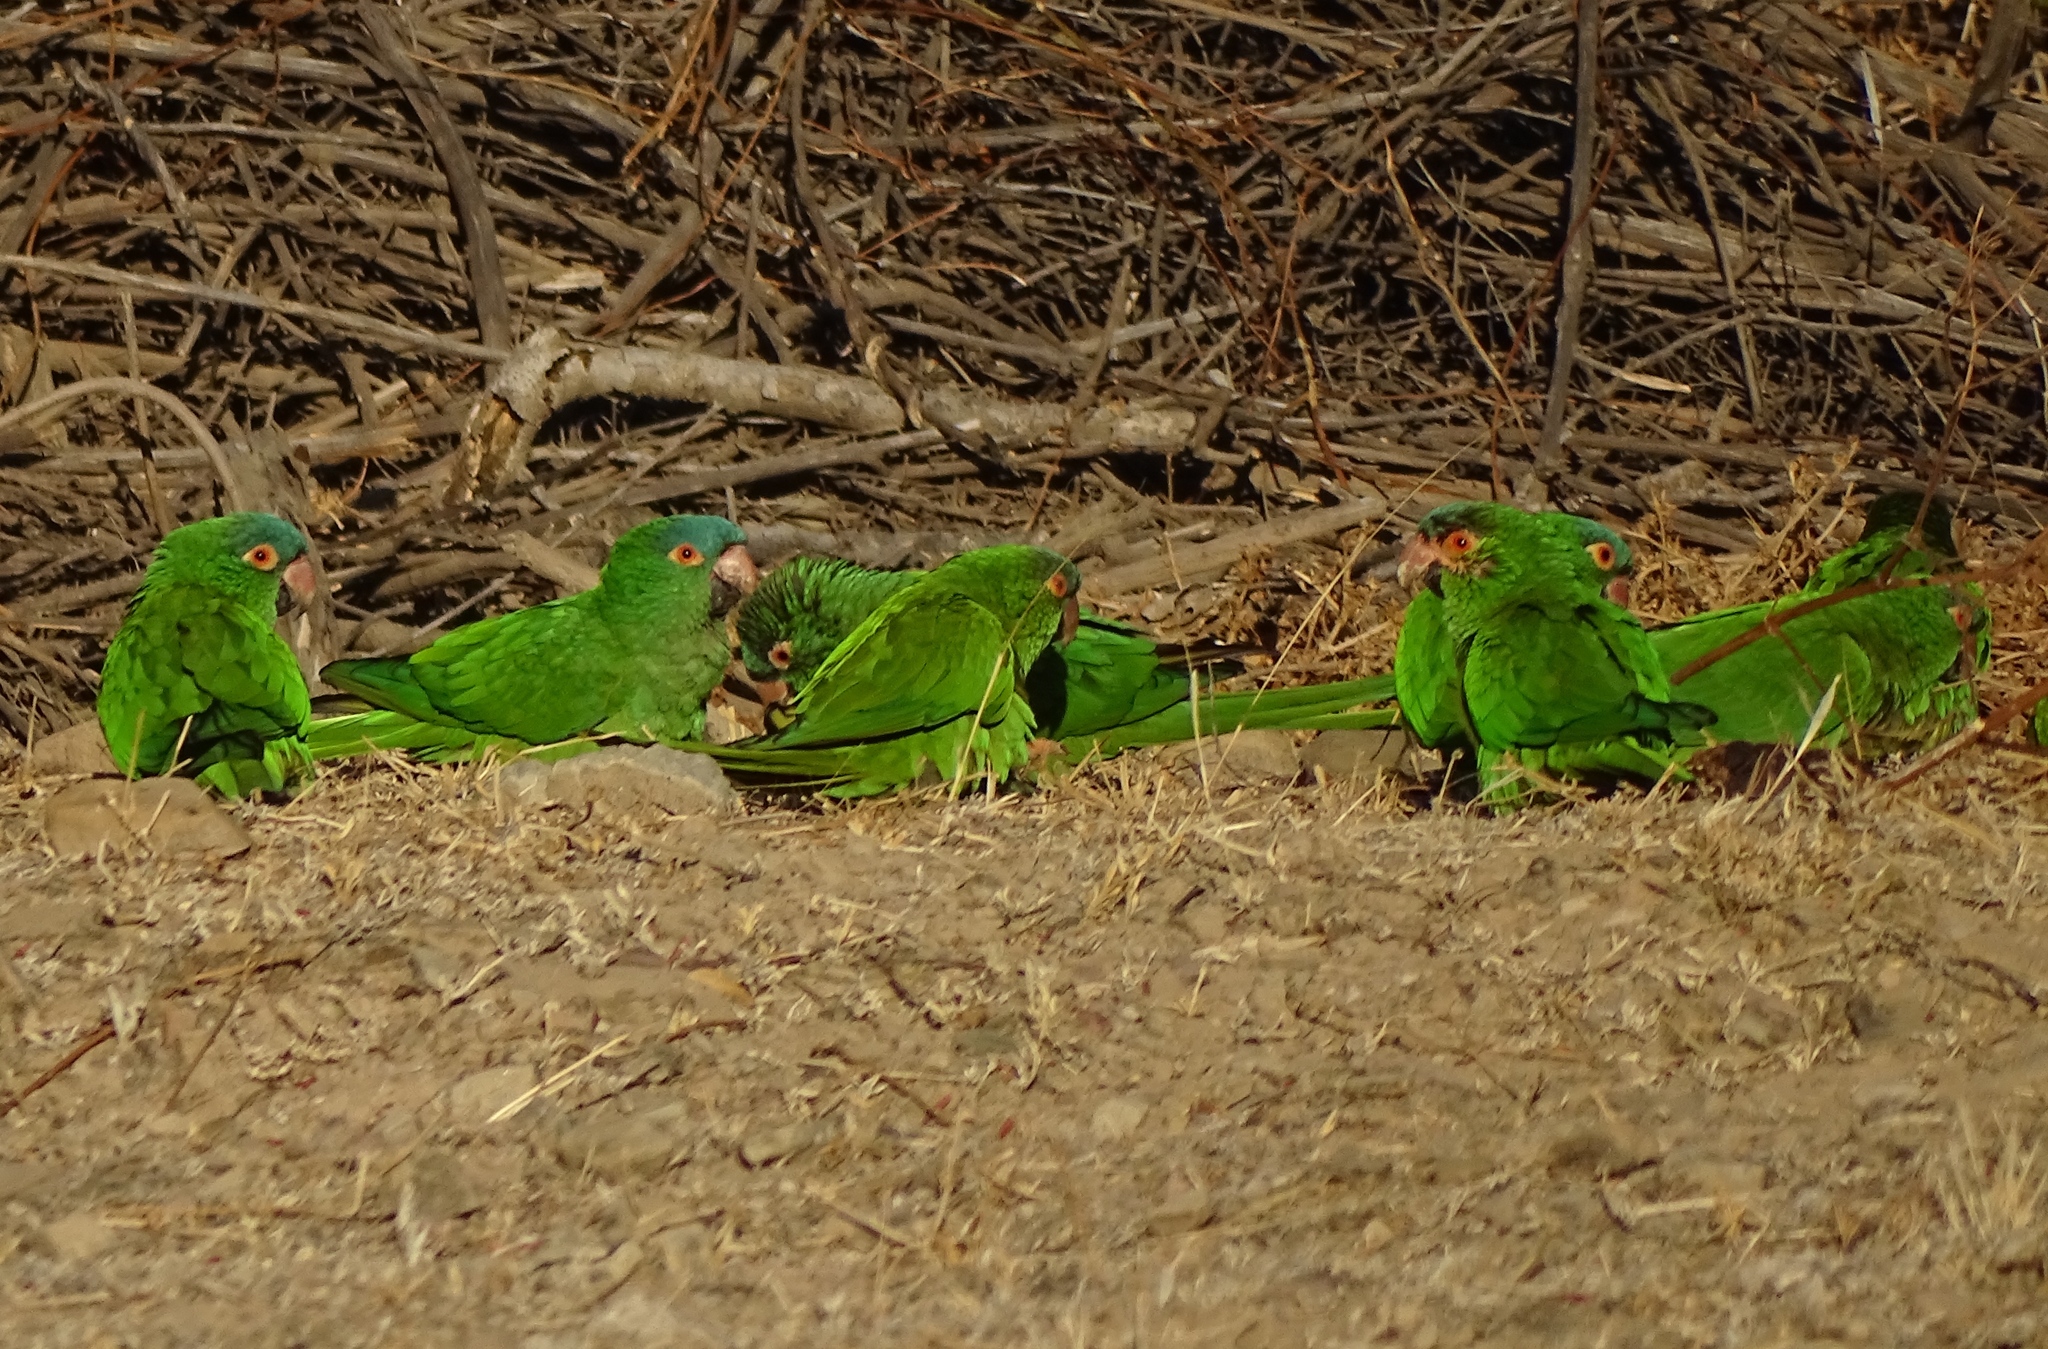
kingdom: Animalia
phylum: Chordata
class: Aves
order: Psittaciformes
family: Psittacidae
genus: Aratinga
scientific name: Aratinga acuticaudata
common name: Blue-crowned parakeet
